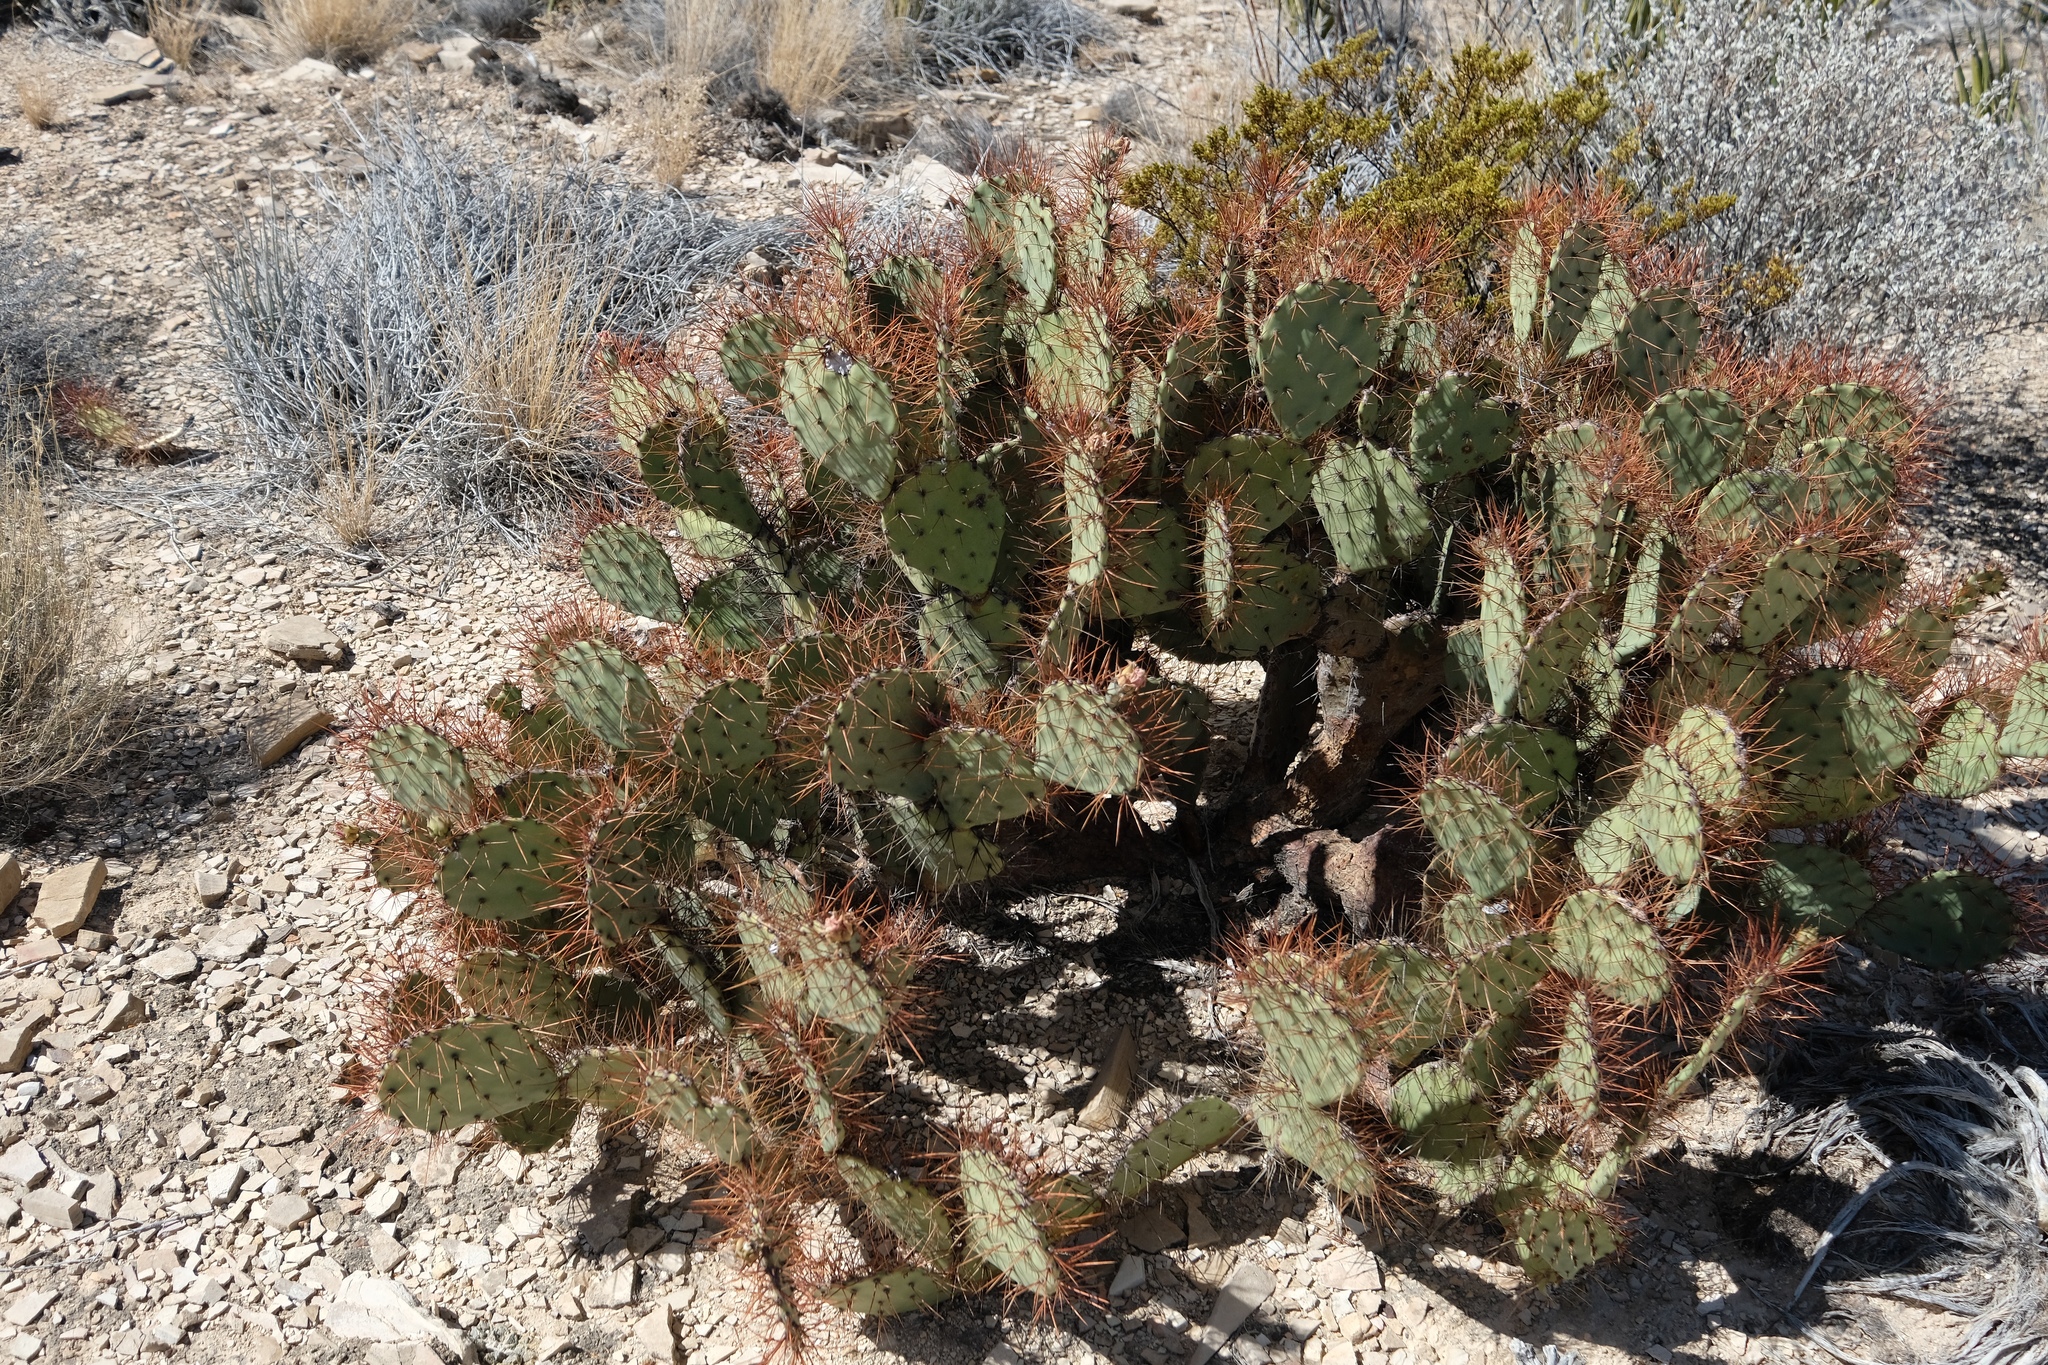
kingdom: Plantae
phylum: Tracheophyta
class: Magnoliopsida
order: Caryophyllales
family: Cactaceae
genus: Opuntia
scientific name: Opuntia spinosibacca
